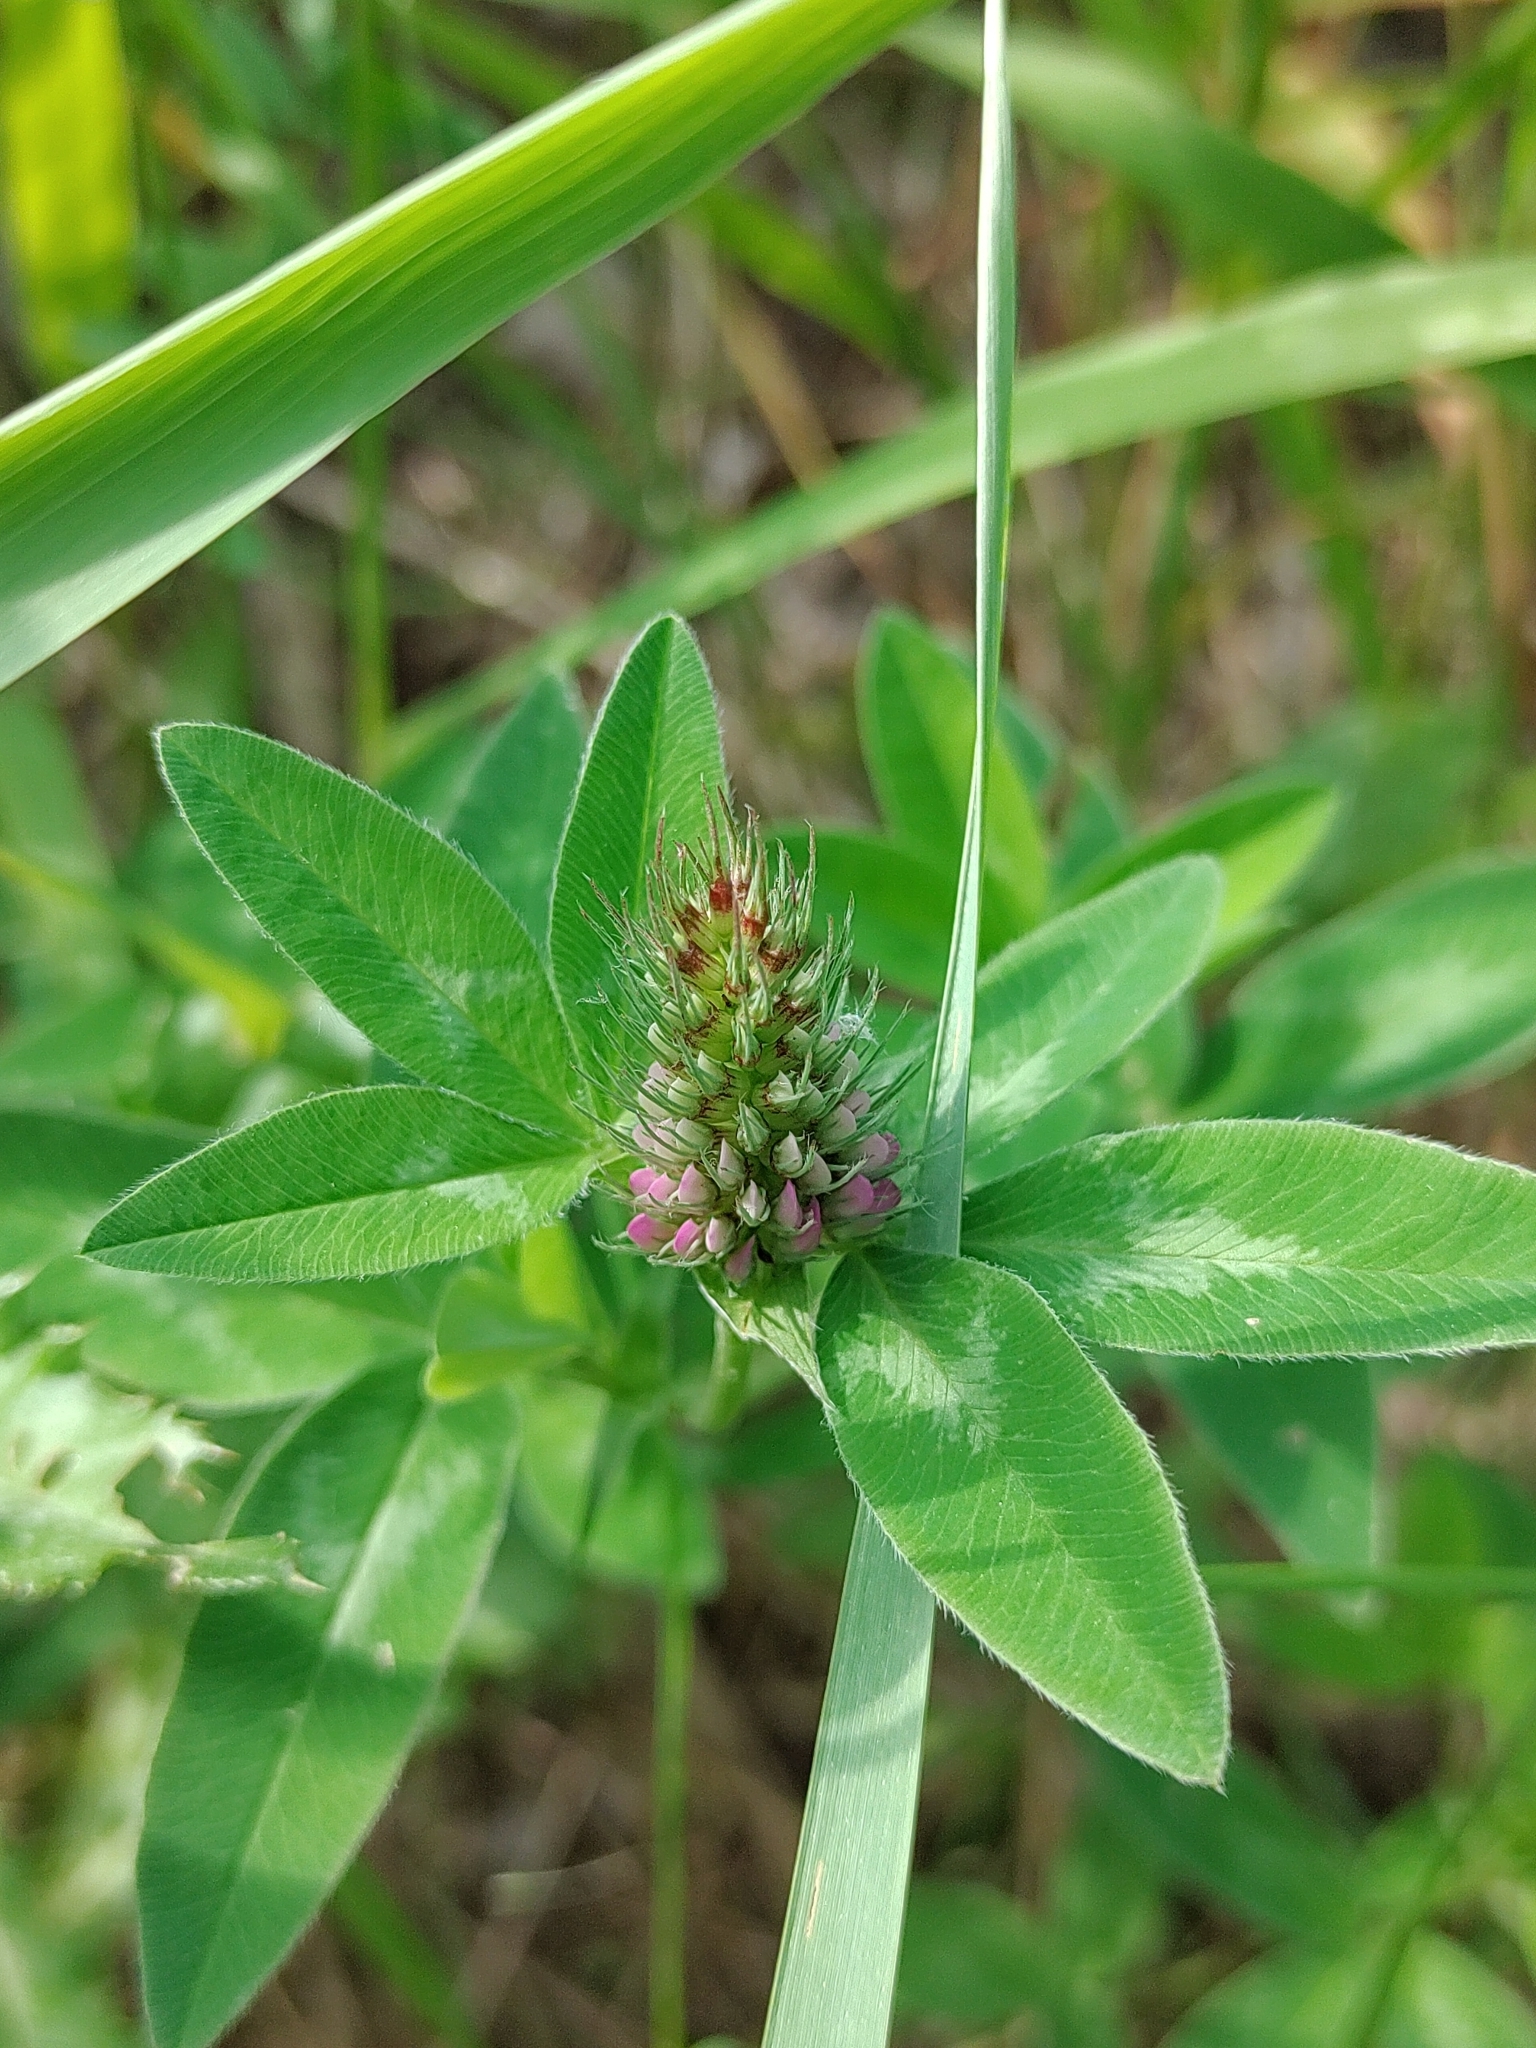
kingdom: Plantae
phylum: Tracheophyta
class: Magnoliopsida
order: Fabales
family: Fabaceae
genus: Trifolium
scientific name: Trifolium medium
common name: Zigzag clover
